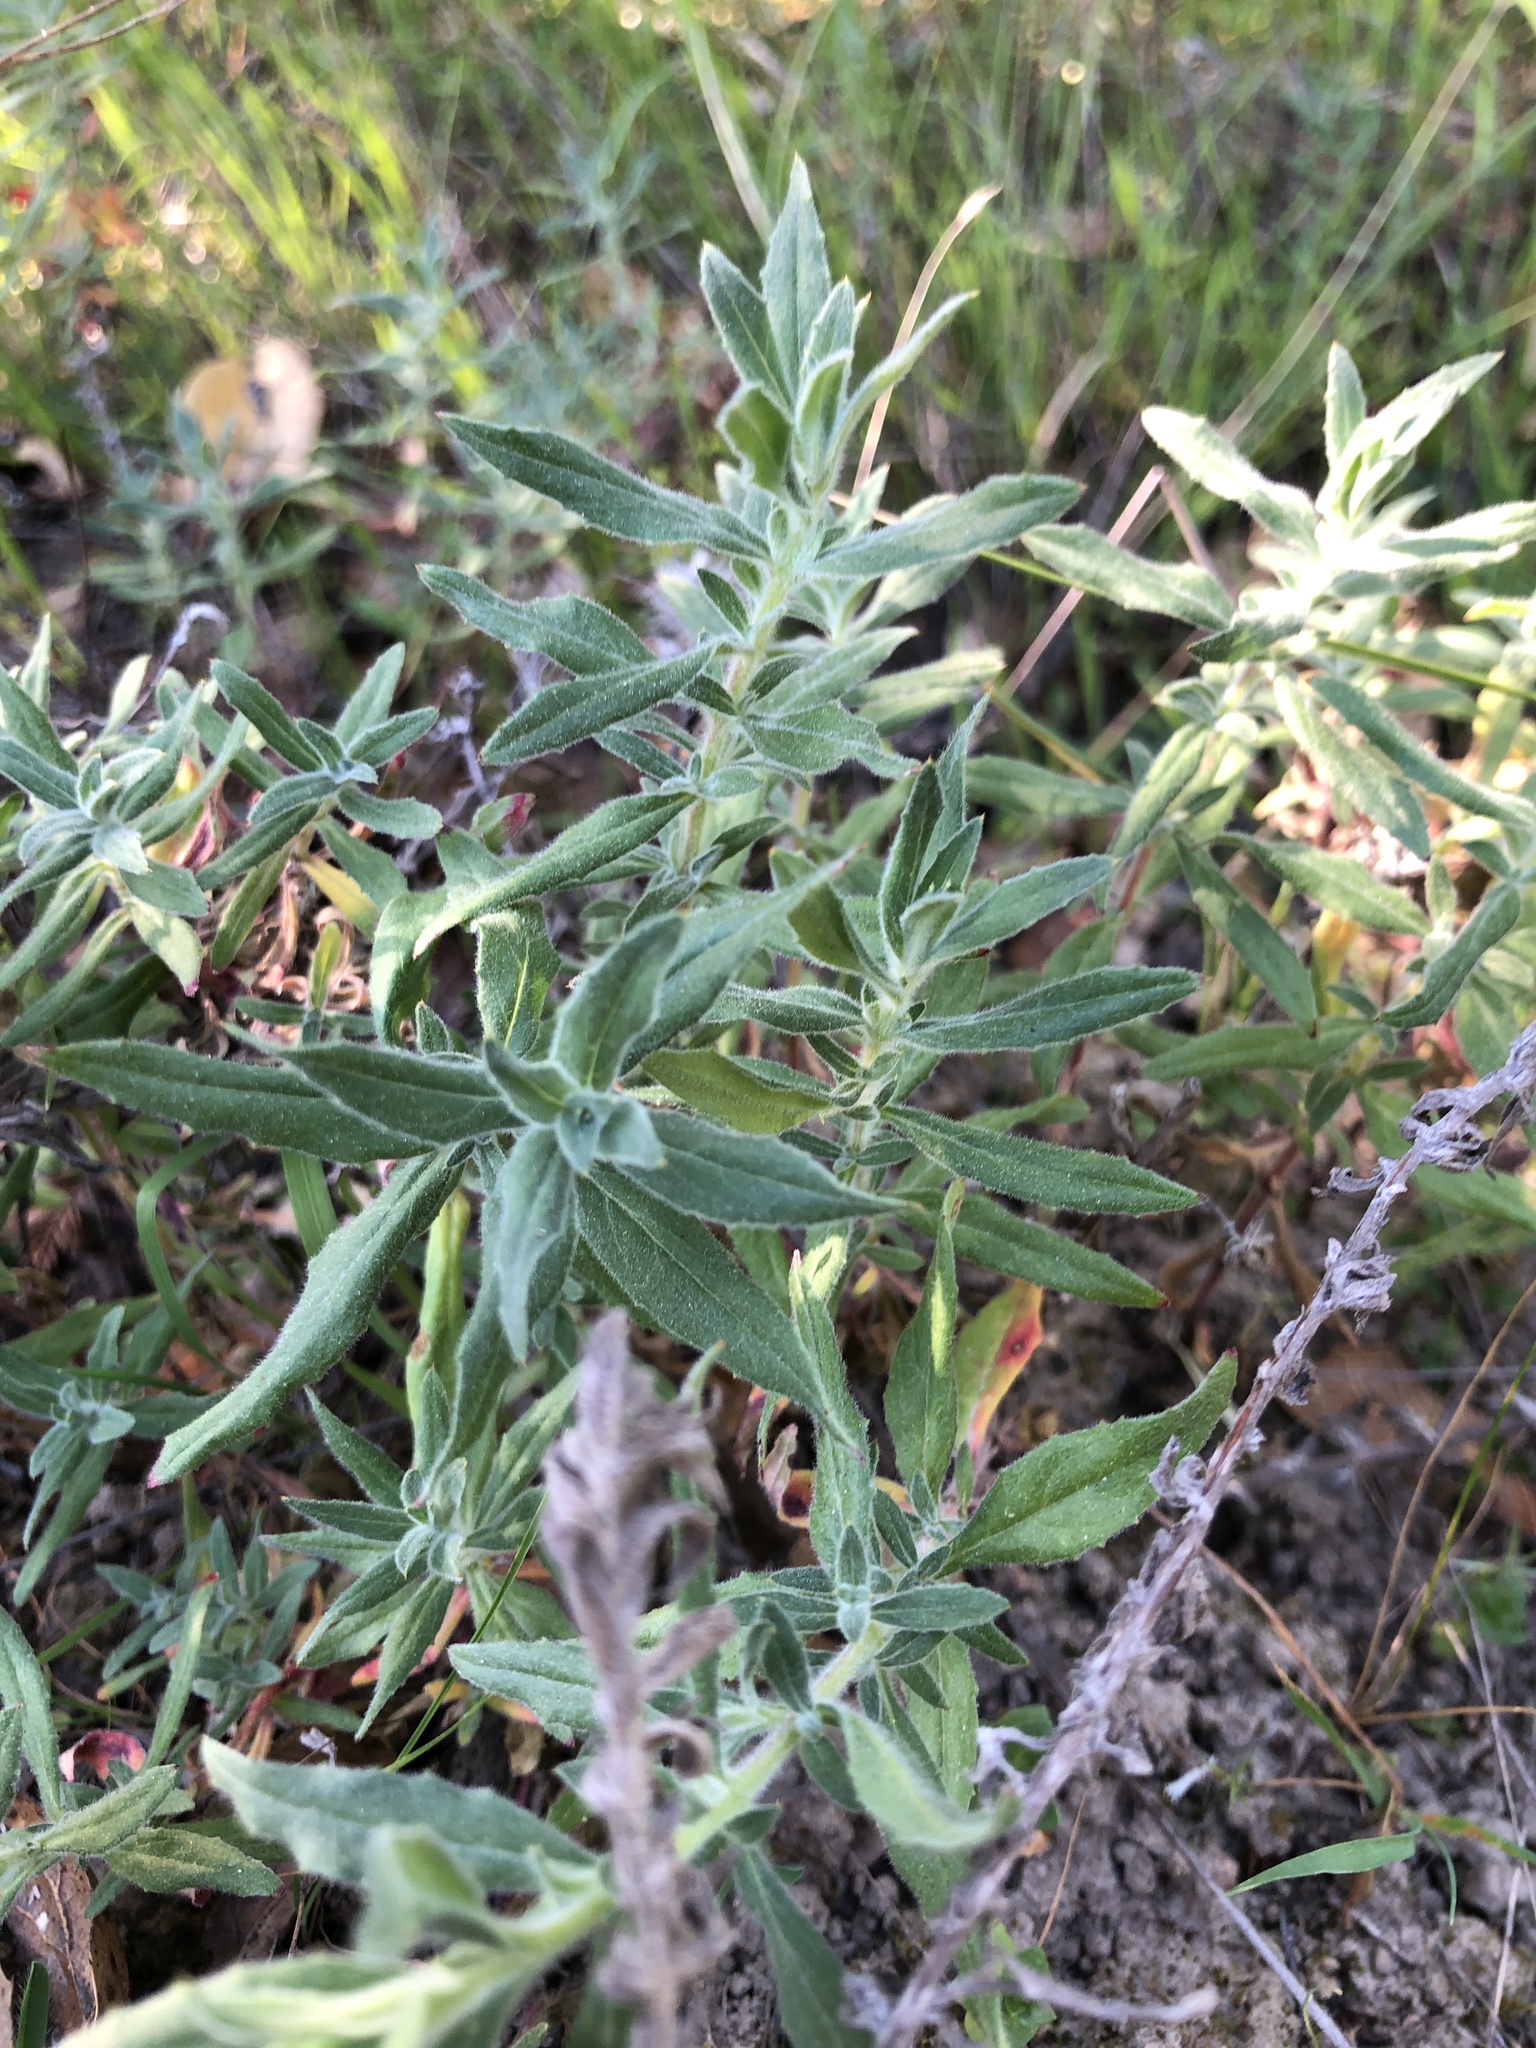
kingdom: Plantae
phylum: Tracheophyta
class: Magnoliopsida
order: Myrtales
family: Onagraceae
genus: Epilobium
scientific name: Epilobium canum
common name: California-fuchsia
